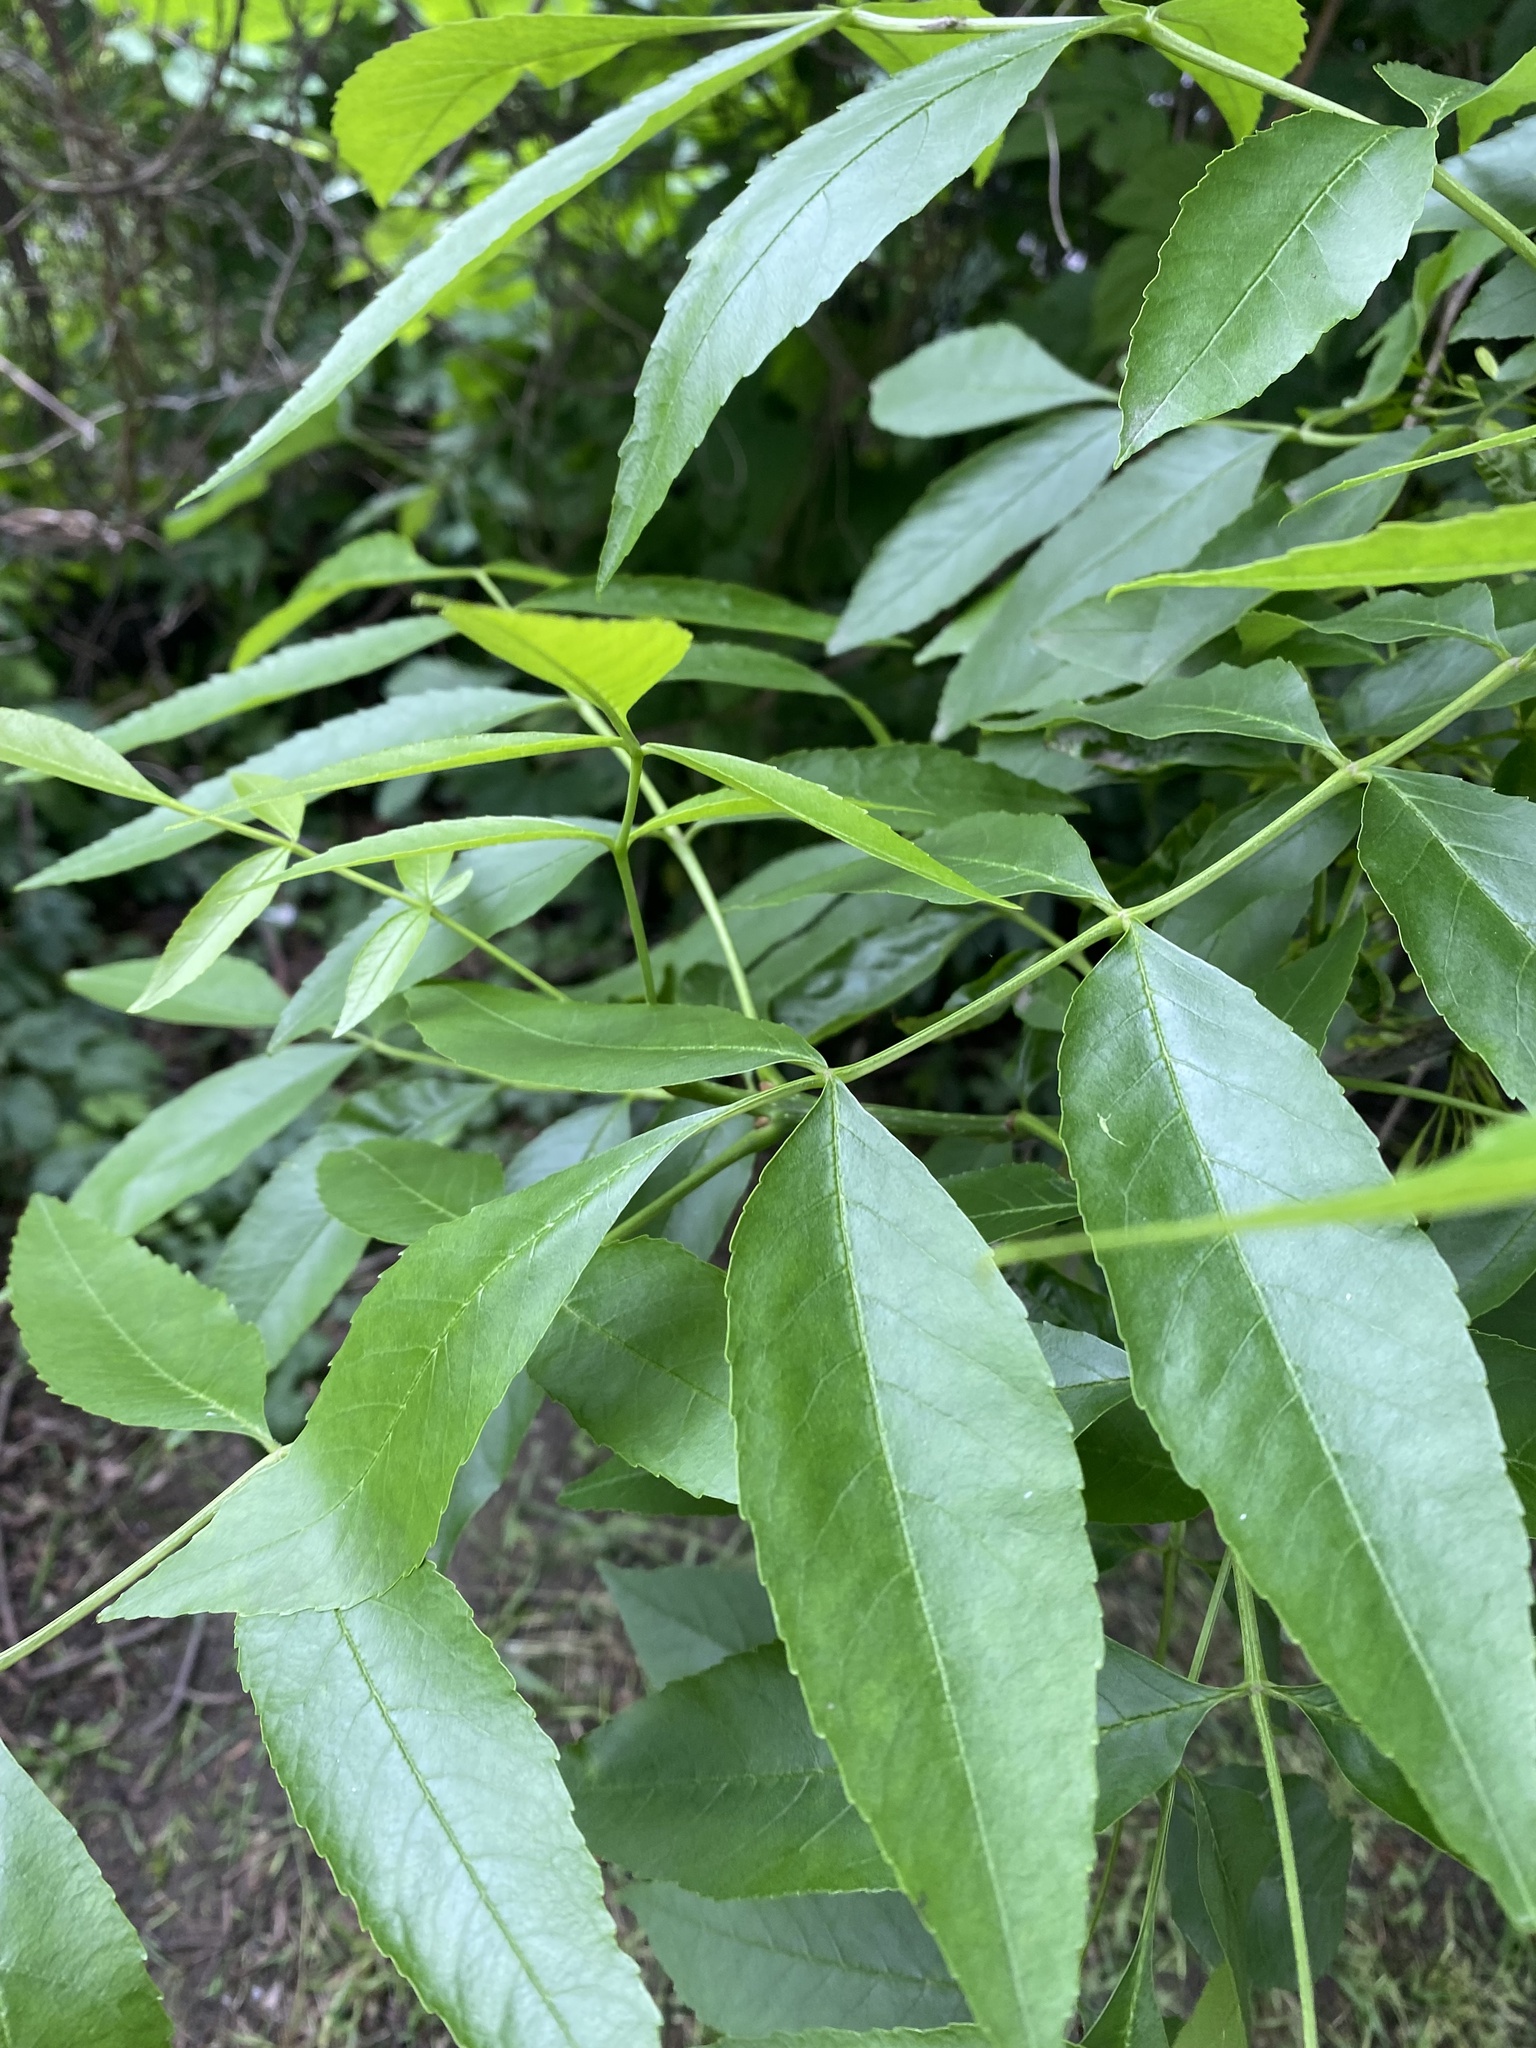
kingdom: Plantae
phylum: Tracheophyta
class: Magnoliopsida
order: Lamiales
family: Oleaceae
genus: Fraxinus
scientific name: Fraxinus pennsylvanica
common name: Green ash
